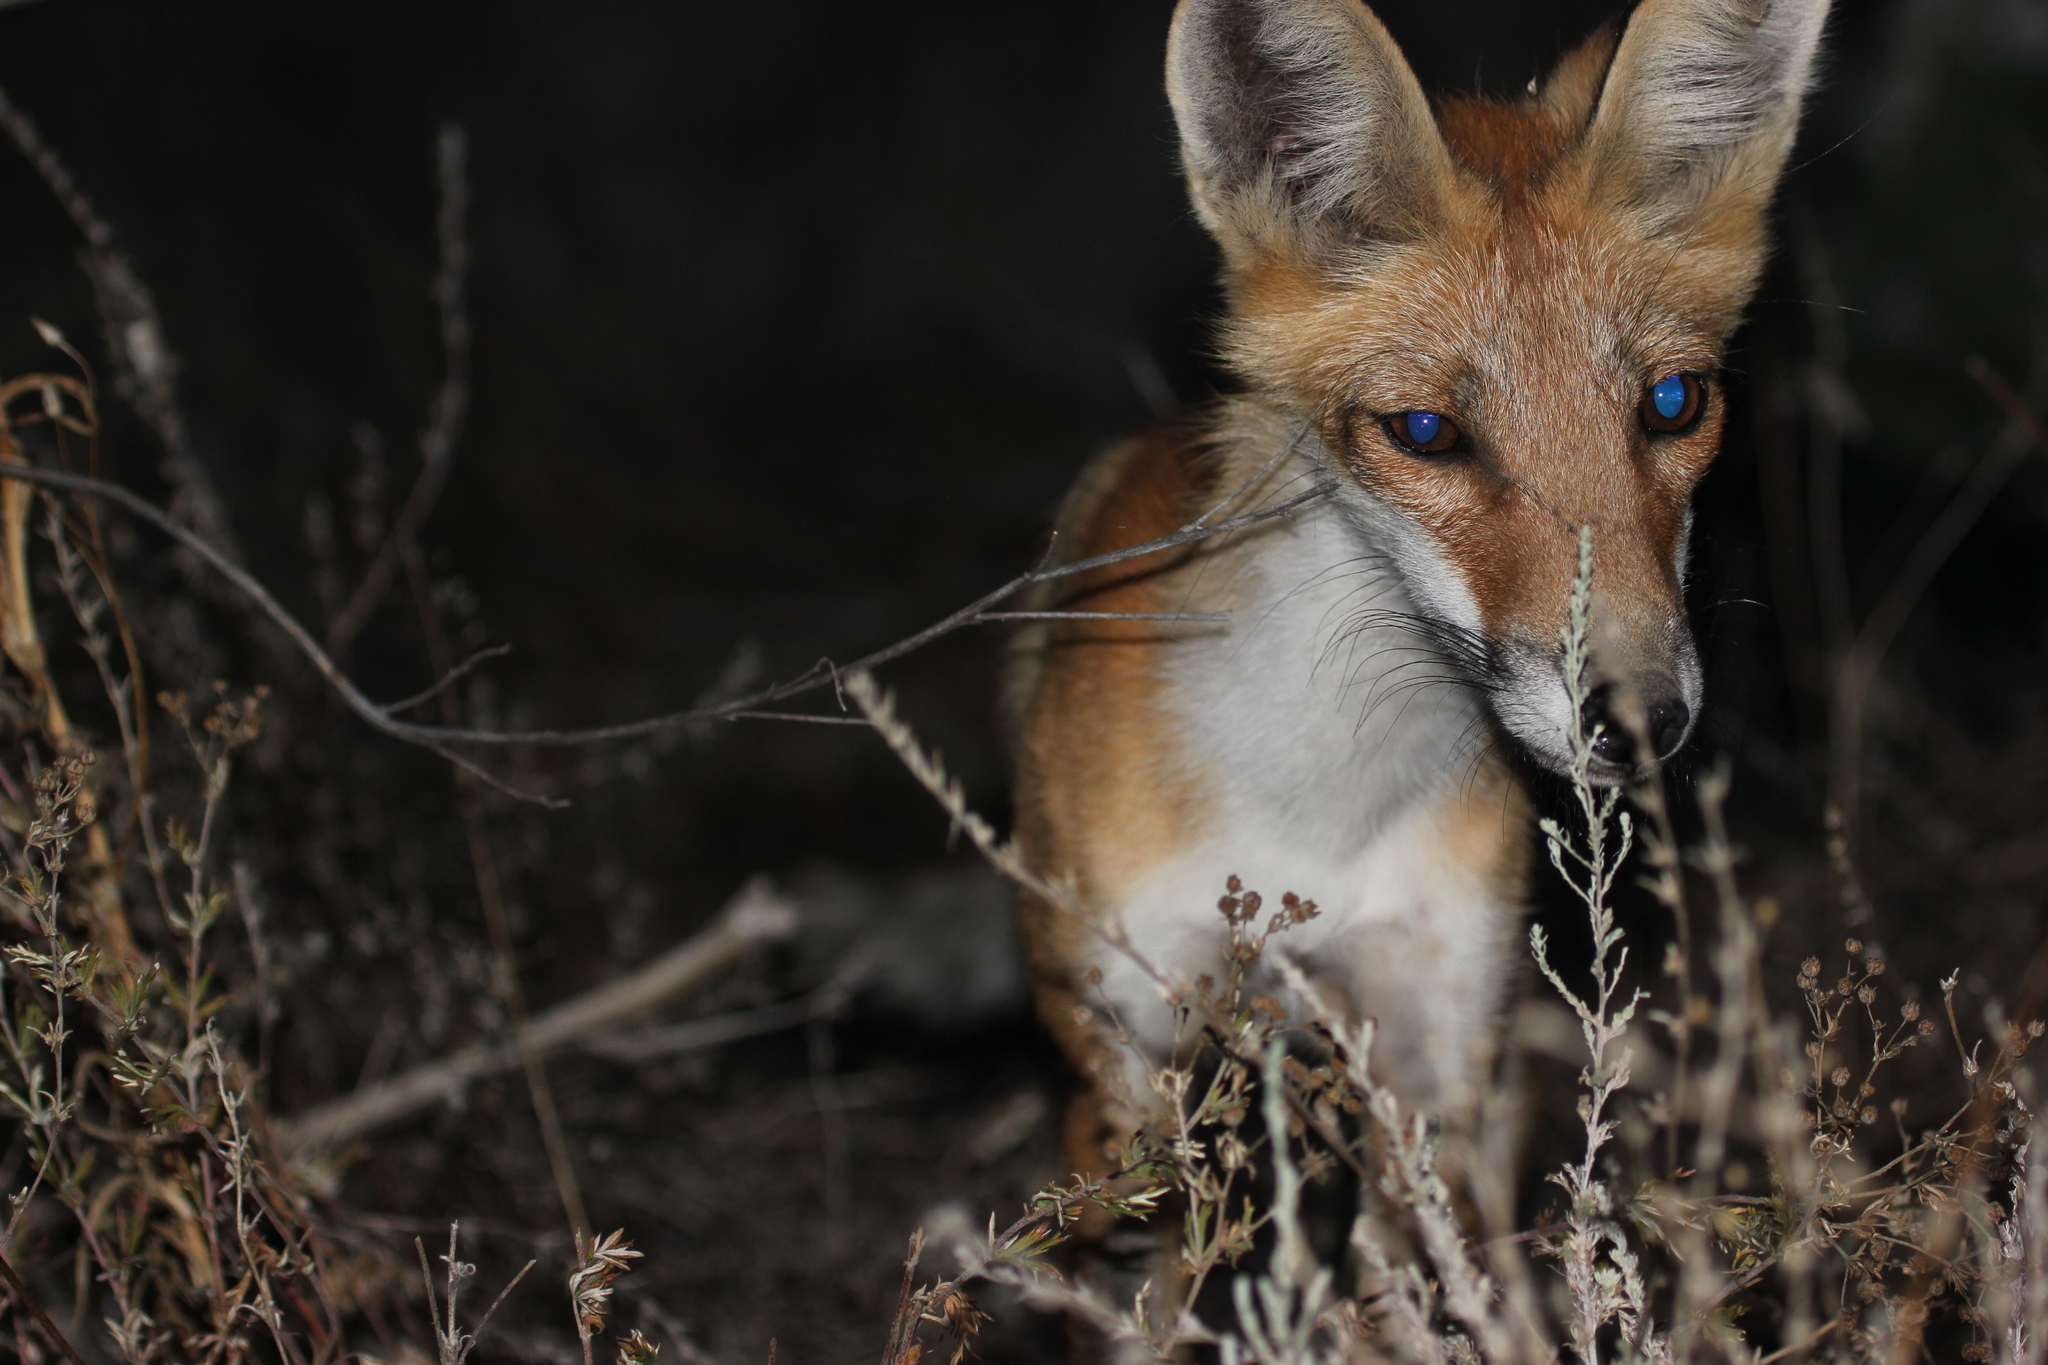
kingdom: Animalia
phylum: Chordata
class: Mammalia
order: Carnivora
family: Canidae
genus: Vulpes
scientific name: Vulpes vulpes
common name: Red fox
